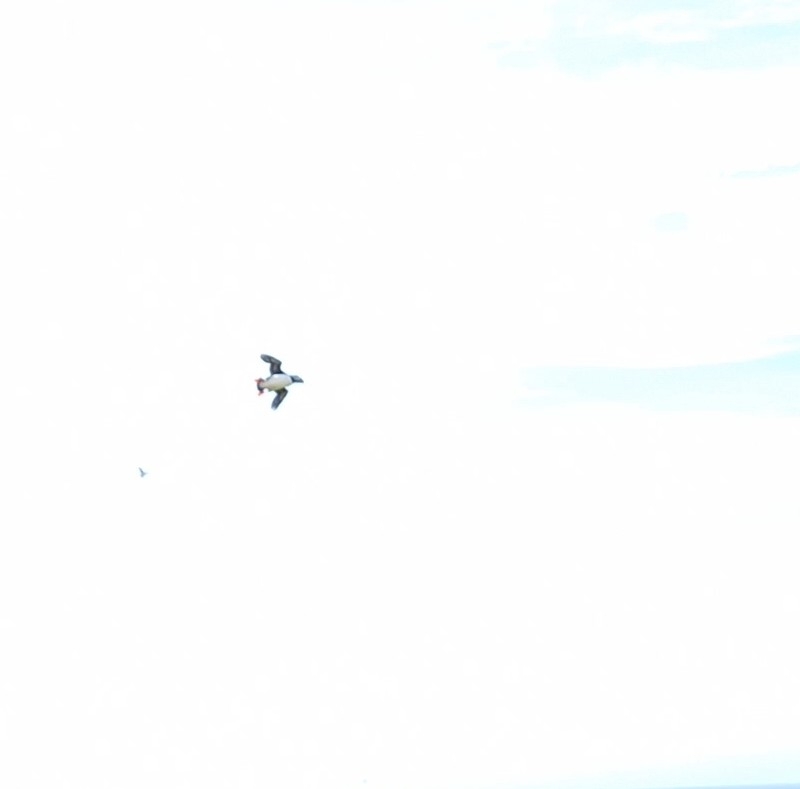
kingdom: Animalia
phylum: Chordata
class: Aves
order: Charadriiformes
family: Alcidae
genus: Fratercula
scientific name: Fratercula arctica
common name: Atlantic puffin
